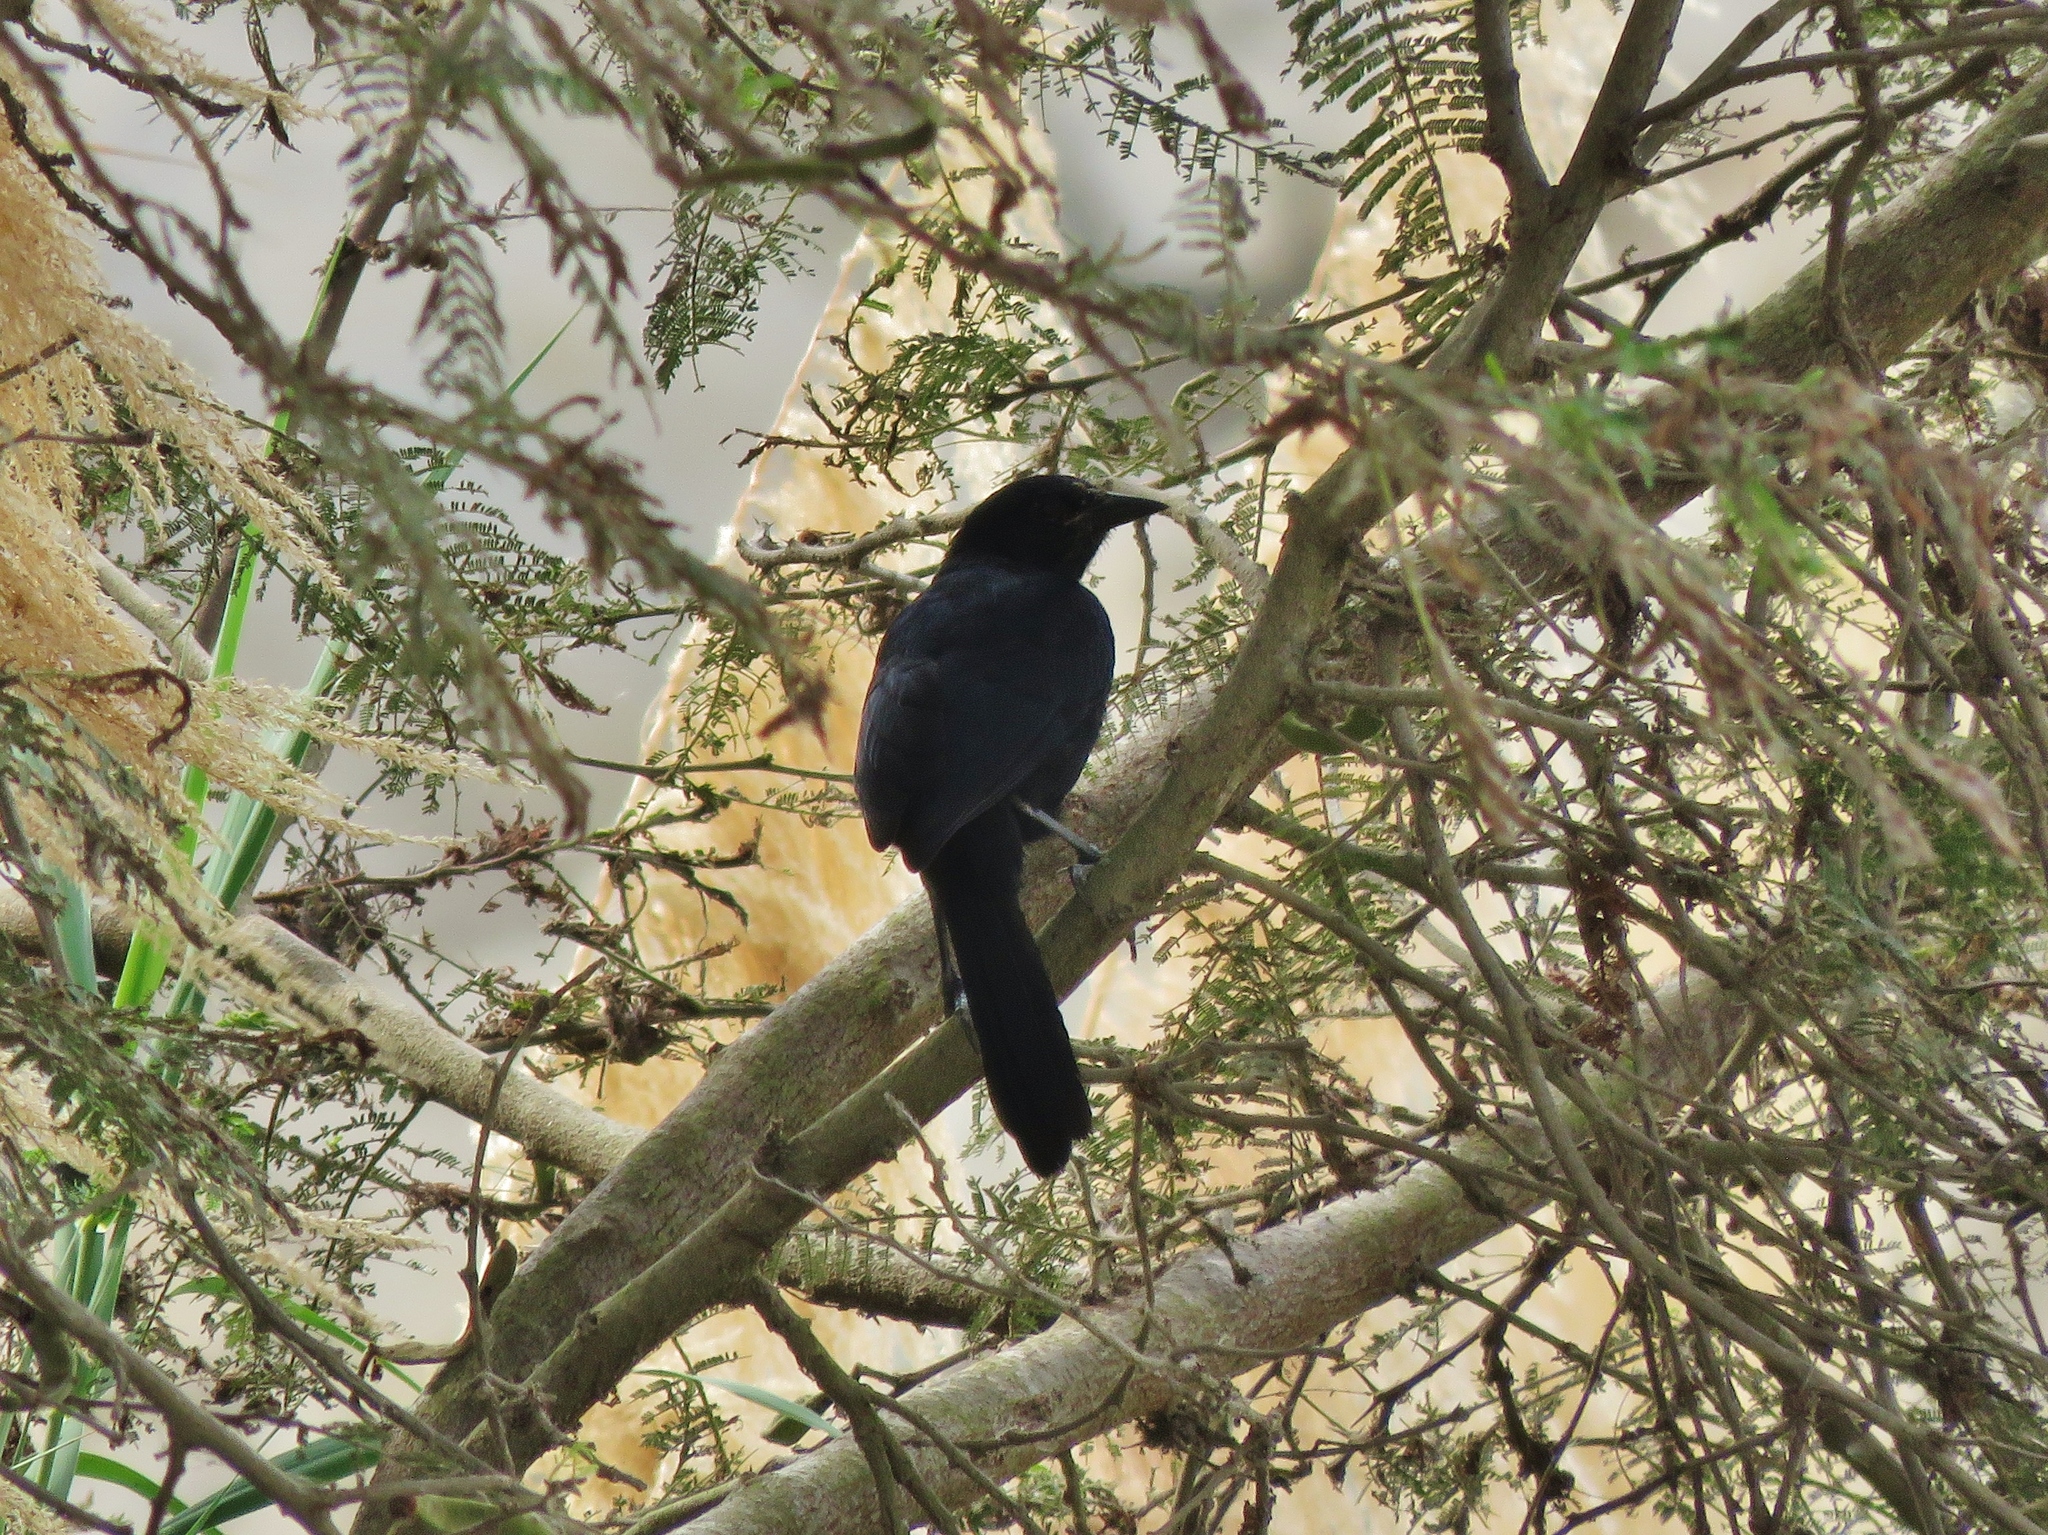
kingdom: Animalia
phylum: Chordata
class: Aves
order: Passeriformes
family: Icteridae
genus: Dives
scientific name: Dives warczewiczi
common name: Scrub blackbird
